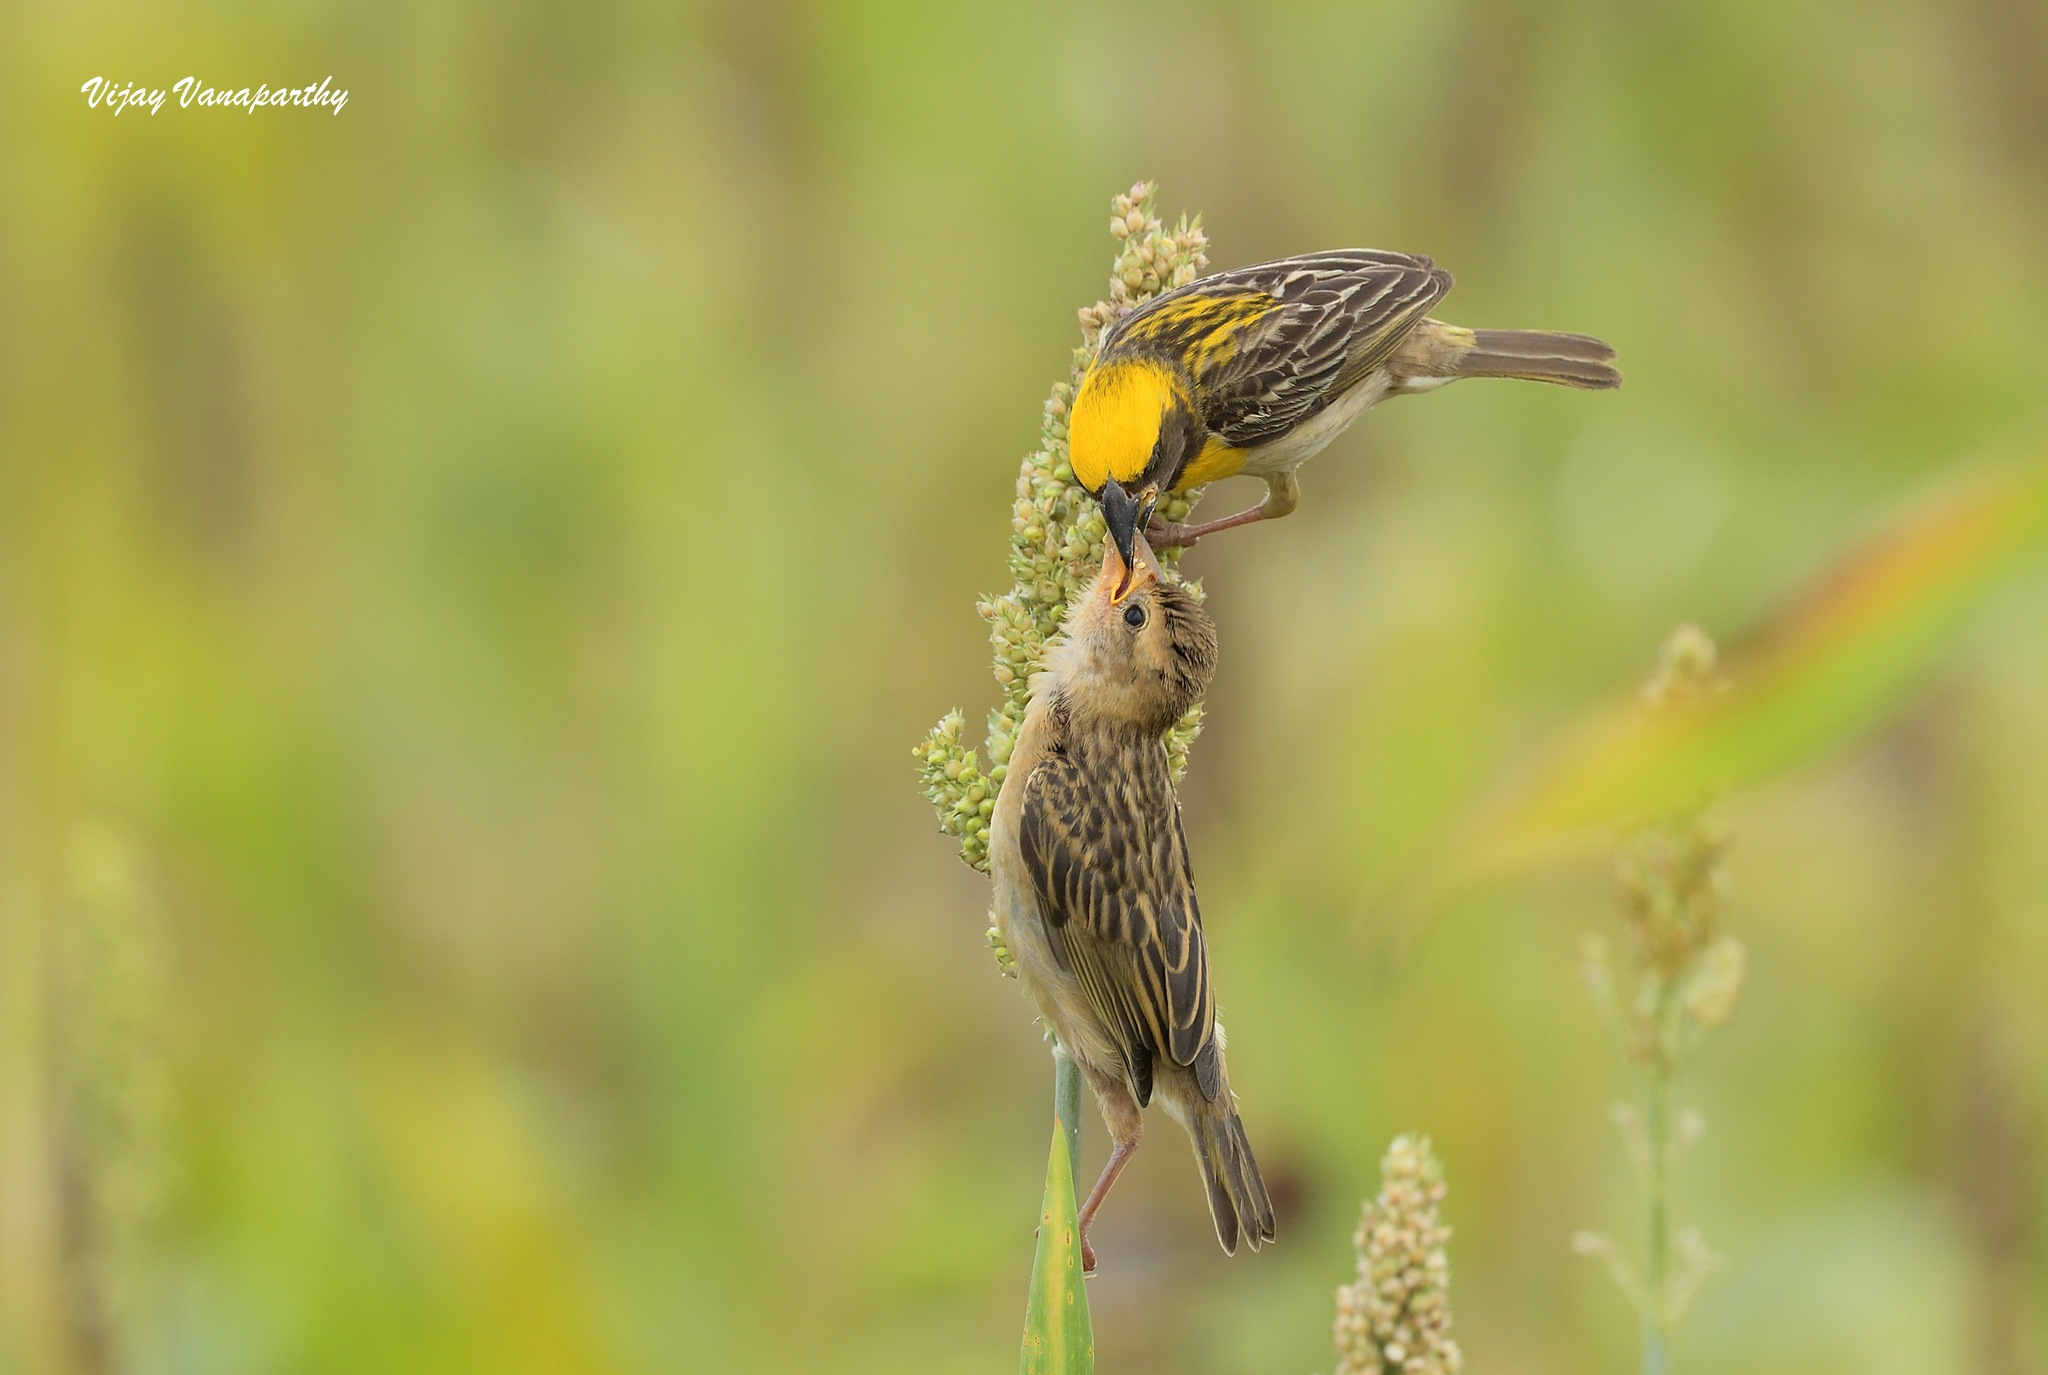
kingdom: Animalia
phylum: Chordata
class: Aves
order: Passeriformes
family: Ploceidae
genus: Ploceus
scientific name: Ploceus philippinus
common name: Baya weaver
